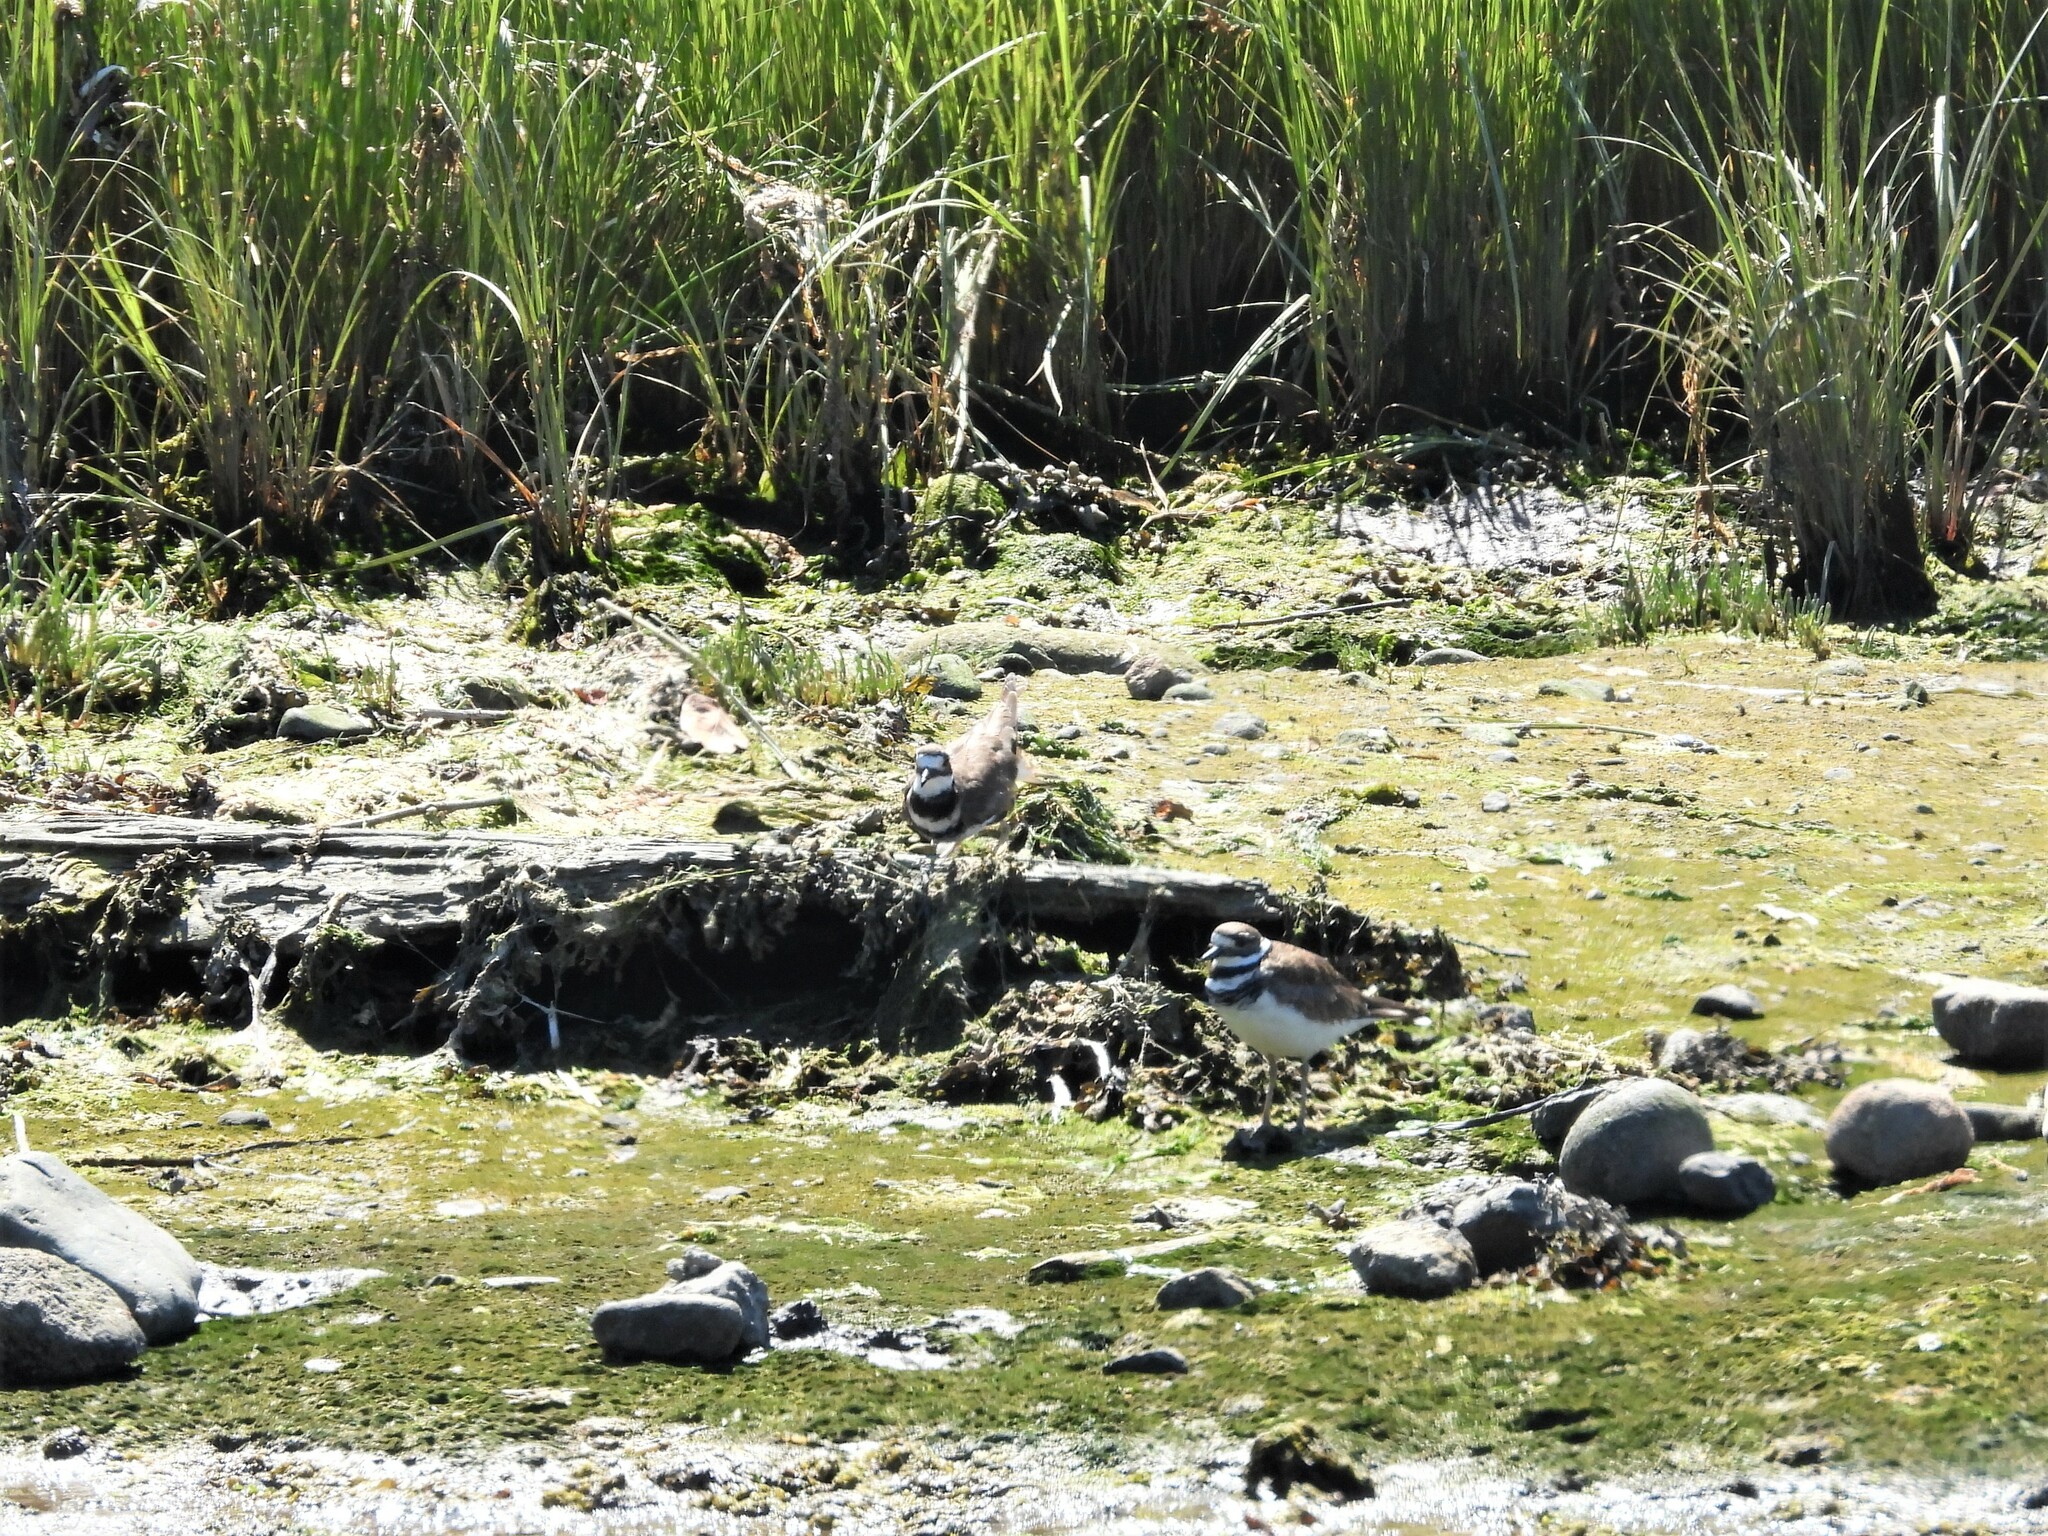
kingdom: Animalia
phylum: Chordata
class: Aves
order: Charadriiformes
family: Charadriidae
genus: Charadrius
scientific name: Charadrius vociferus
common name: Killdeer
